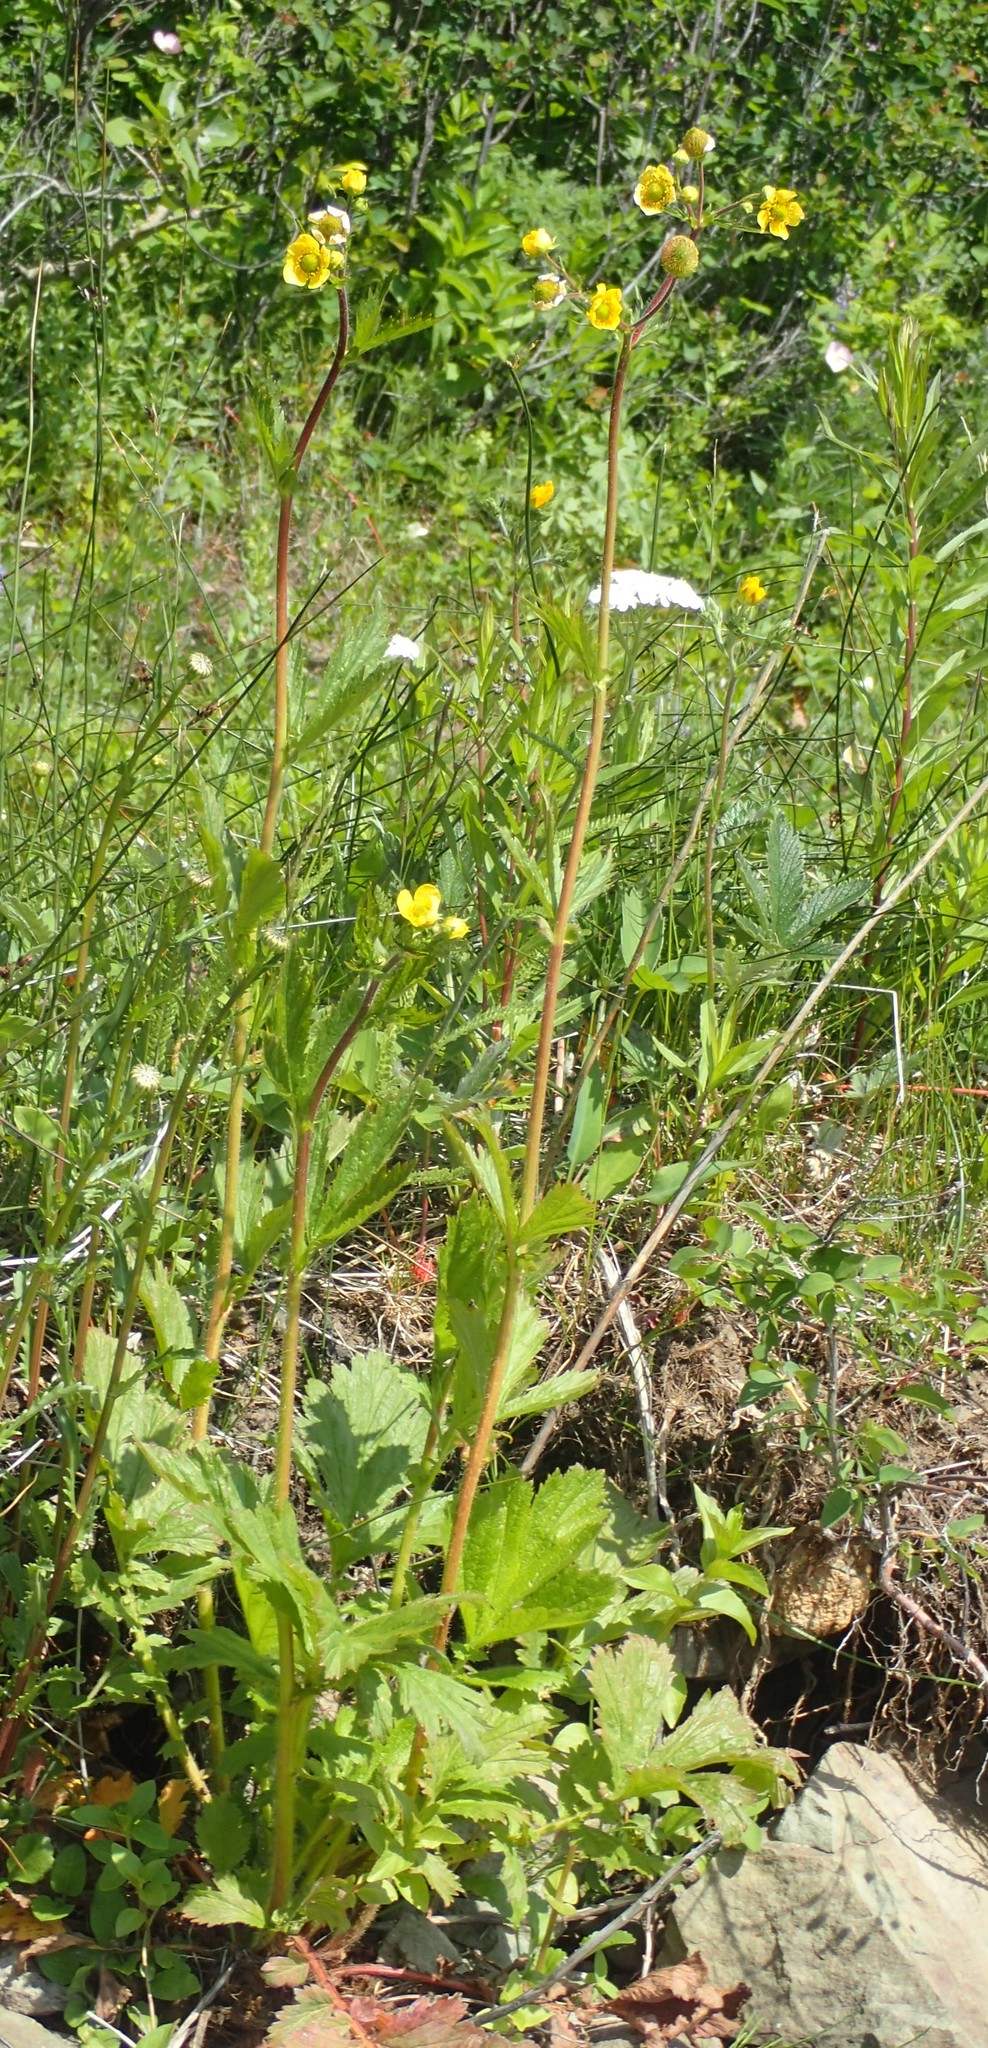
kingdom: Plantae
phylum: Tracheophyta
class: Magnoliopsida
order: Rosales
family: Rosaceae
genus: Geum
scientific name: Geum aleppicum
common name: Yellow avens
